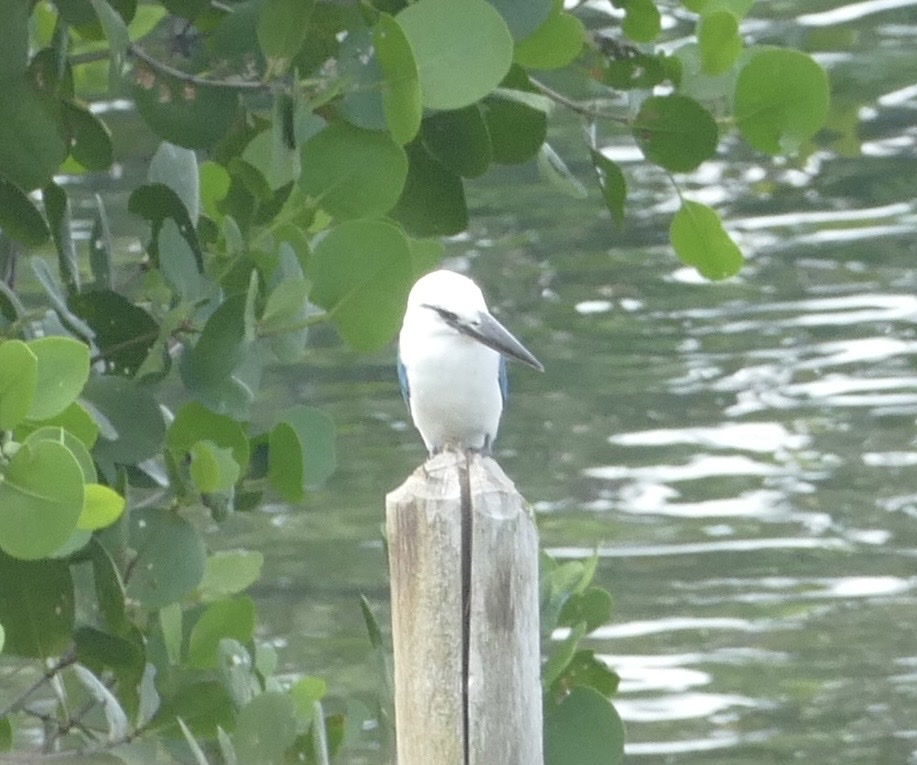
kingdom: Animalia
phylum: Chordata
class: Aves
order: Coraciiformes
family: Alcedinidae
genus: Todiramphus
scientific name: Todiramphus saurophagus
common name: Beach kingfisher
